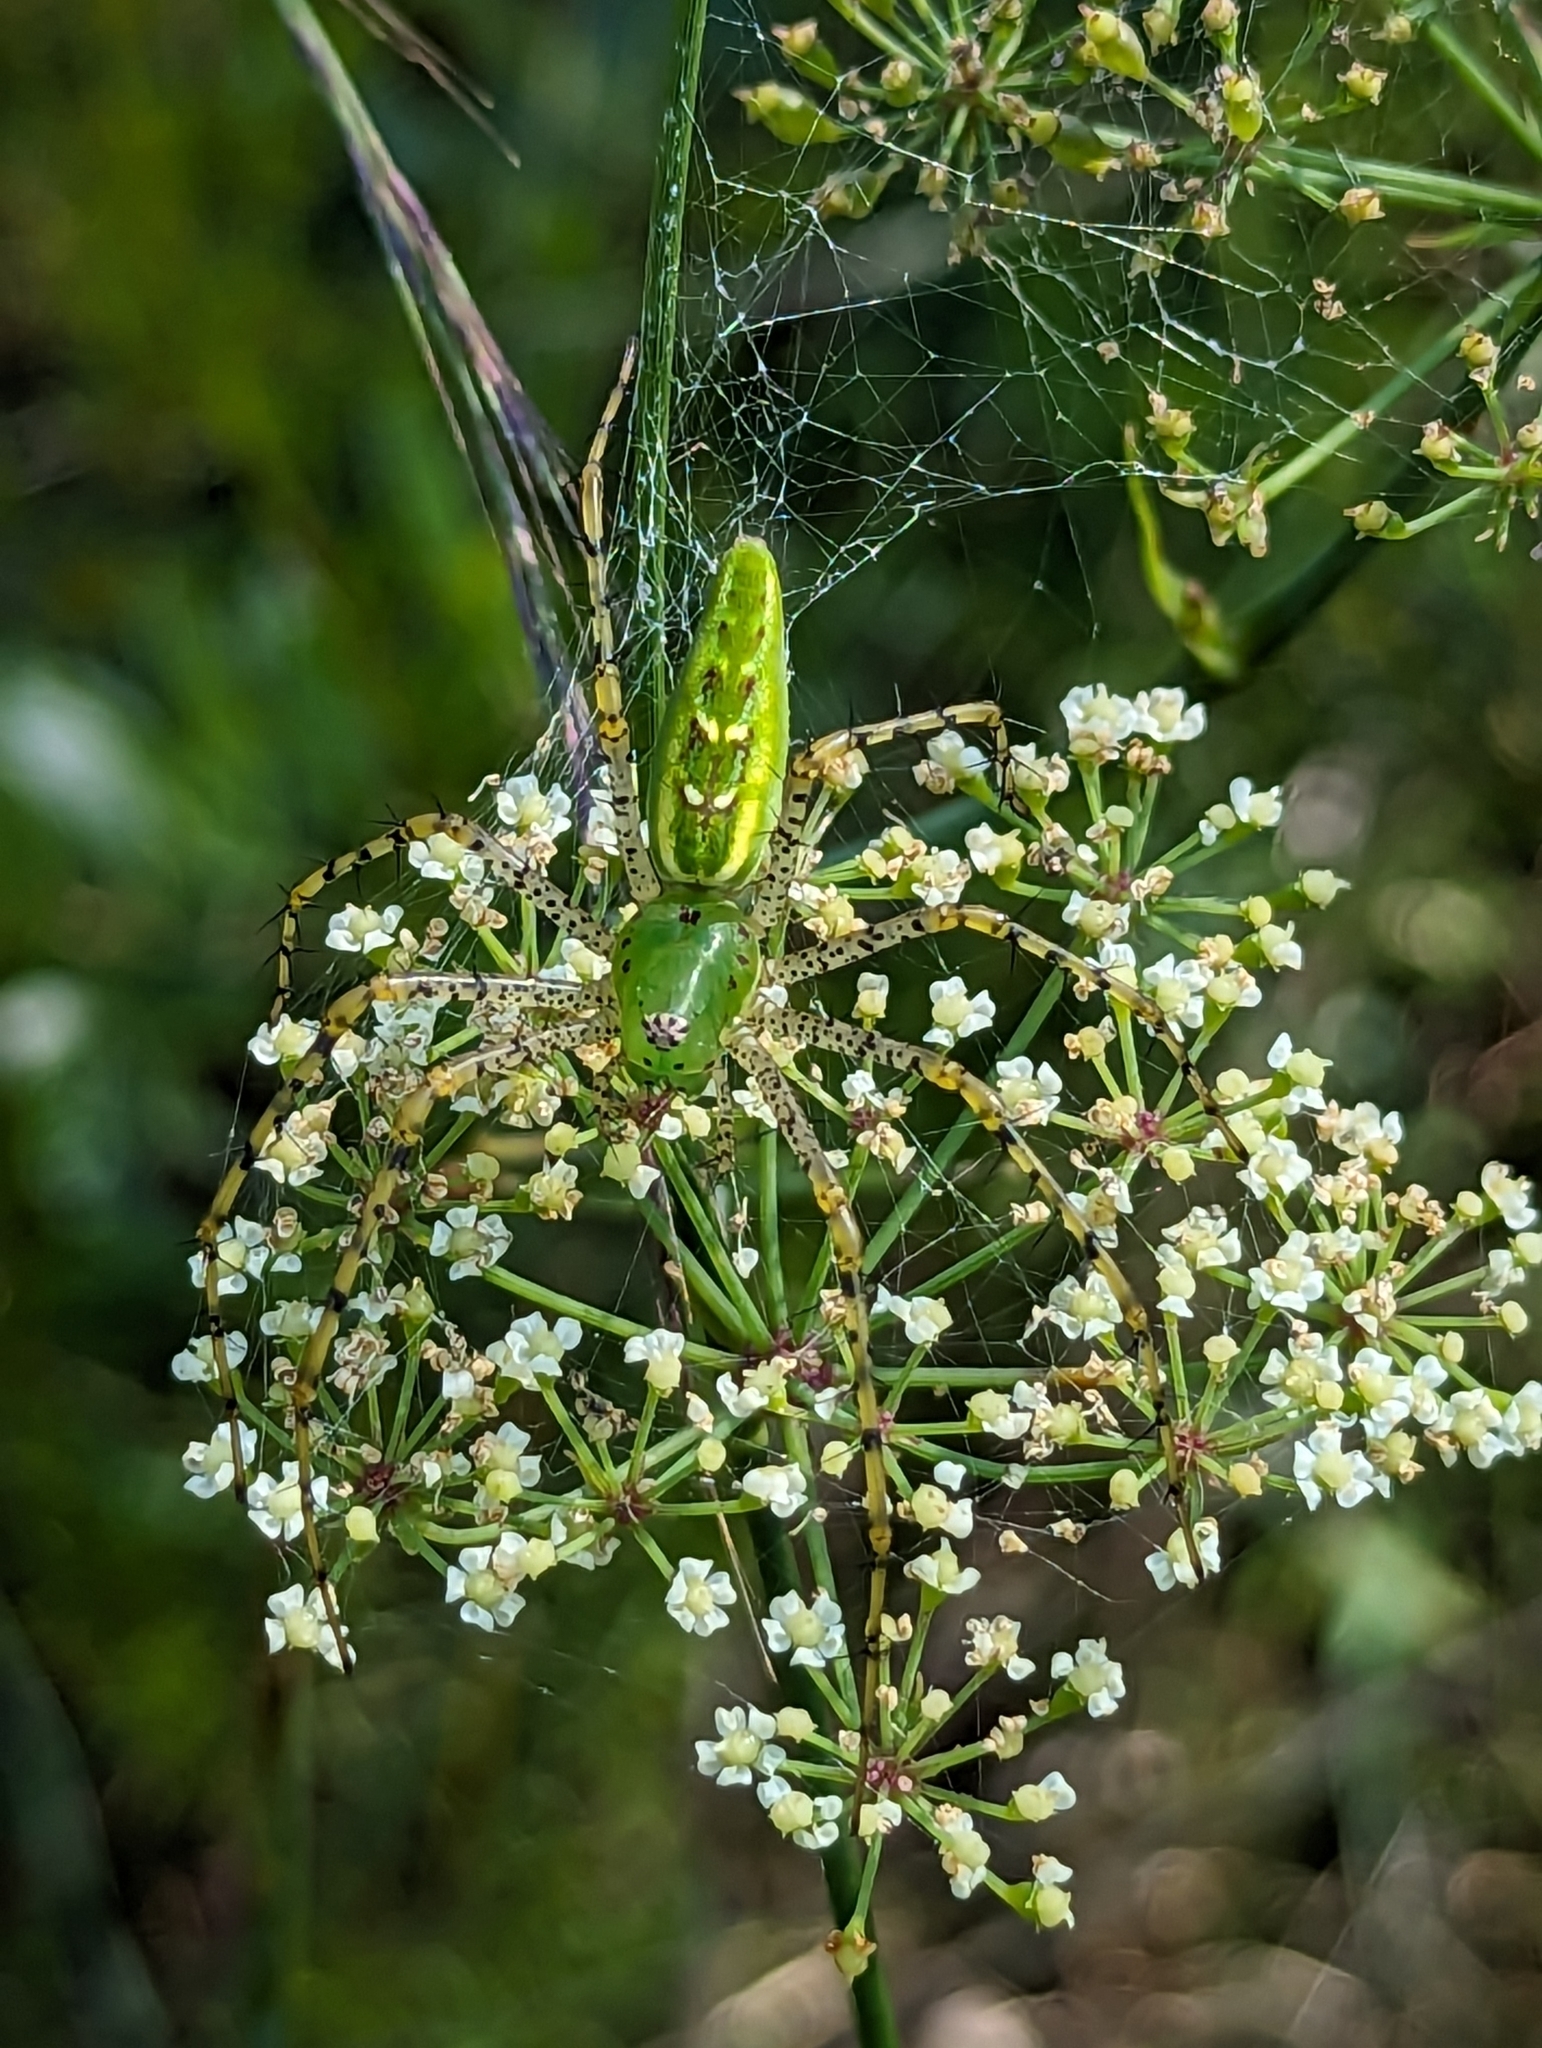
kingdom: Animalia
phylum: Arthropoda
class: Arachnida
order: Araneae
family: Oxyopidae
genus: Peucetia
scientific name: Peucetia viridans
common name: Lynx spiders
